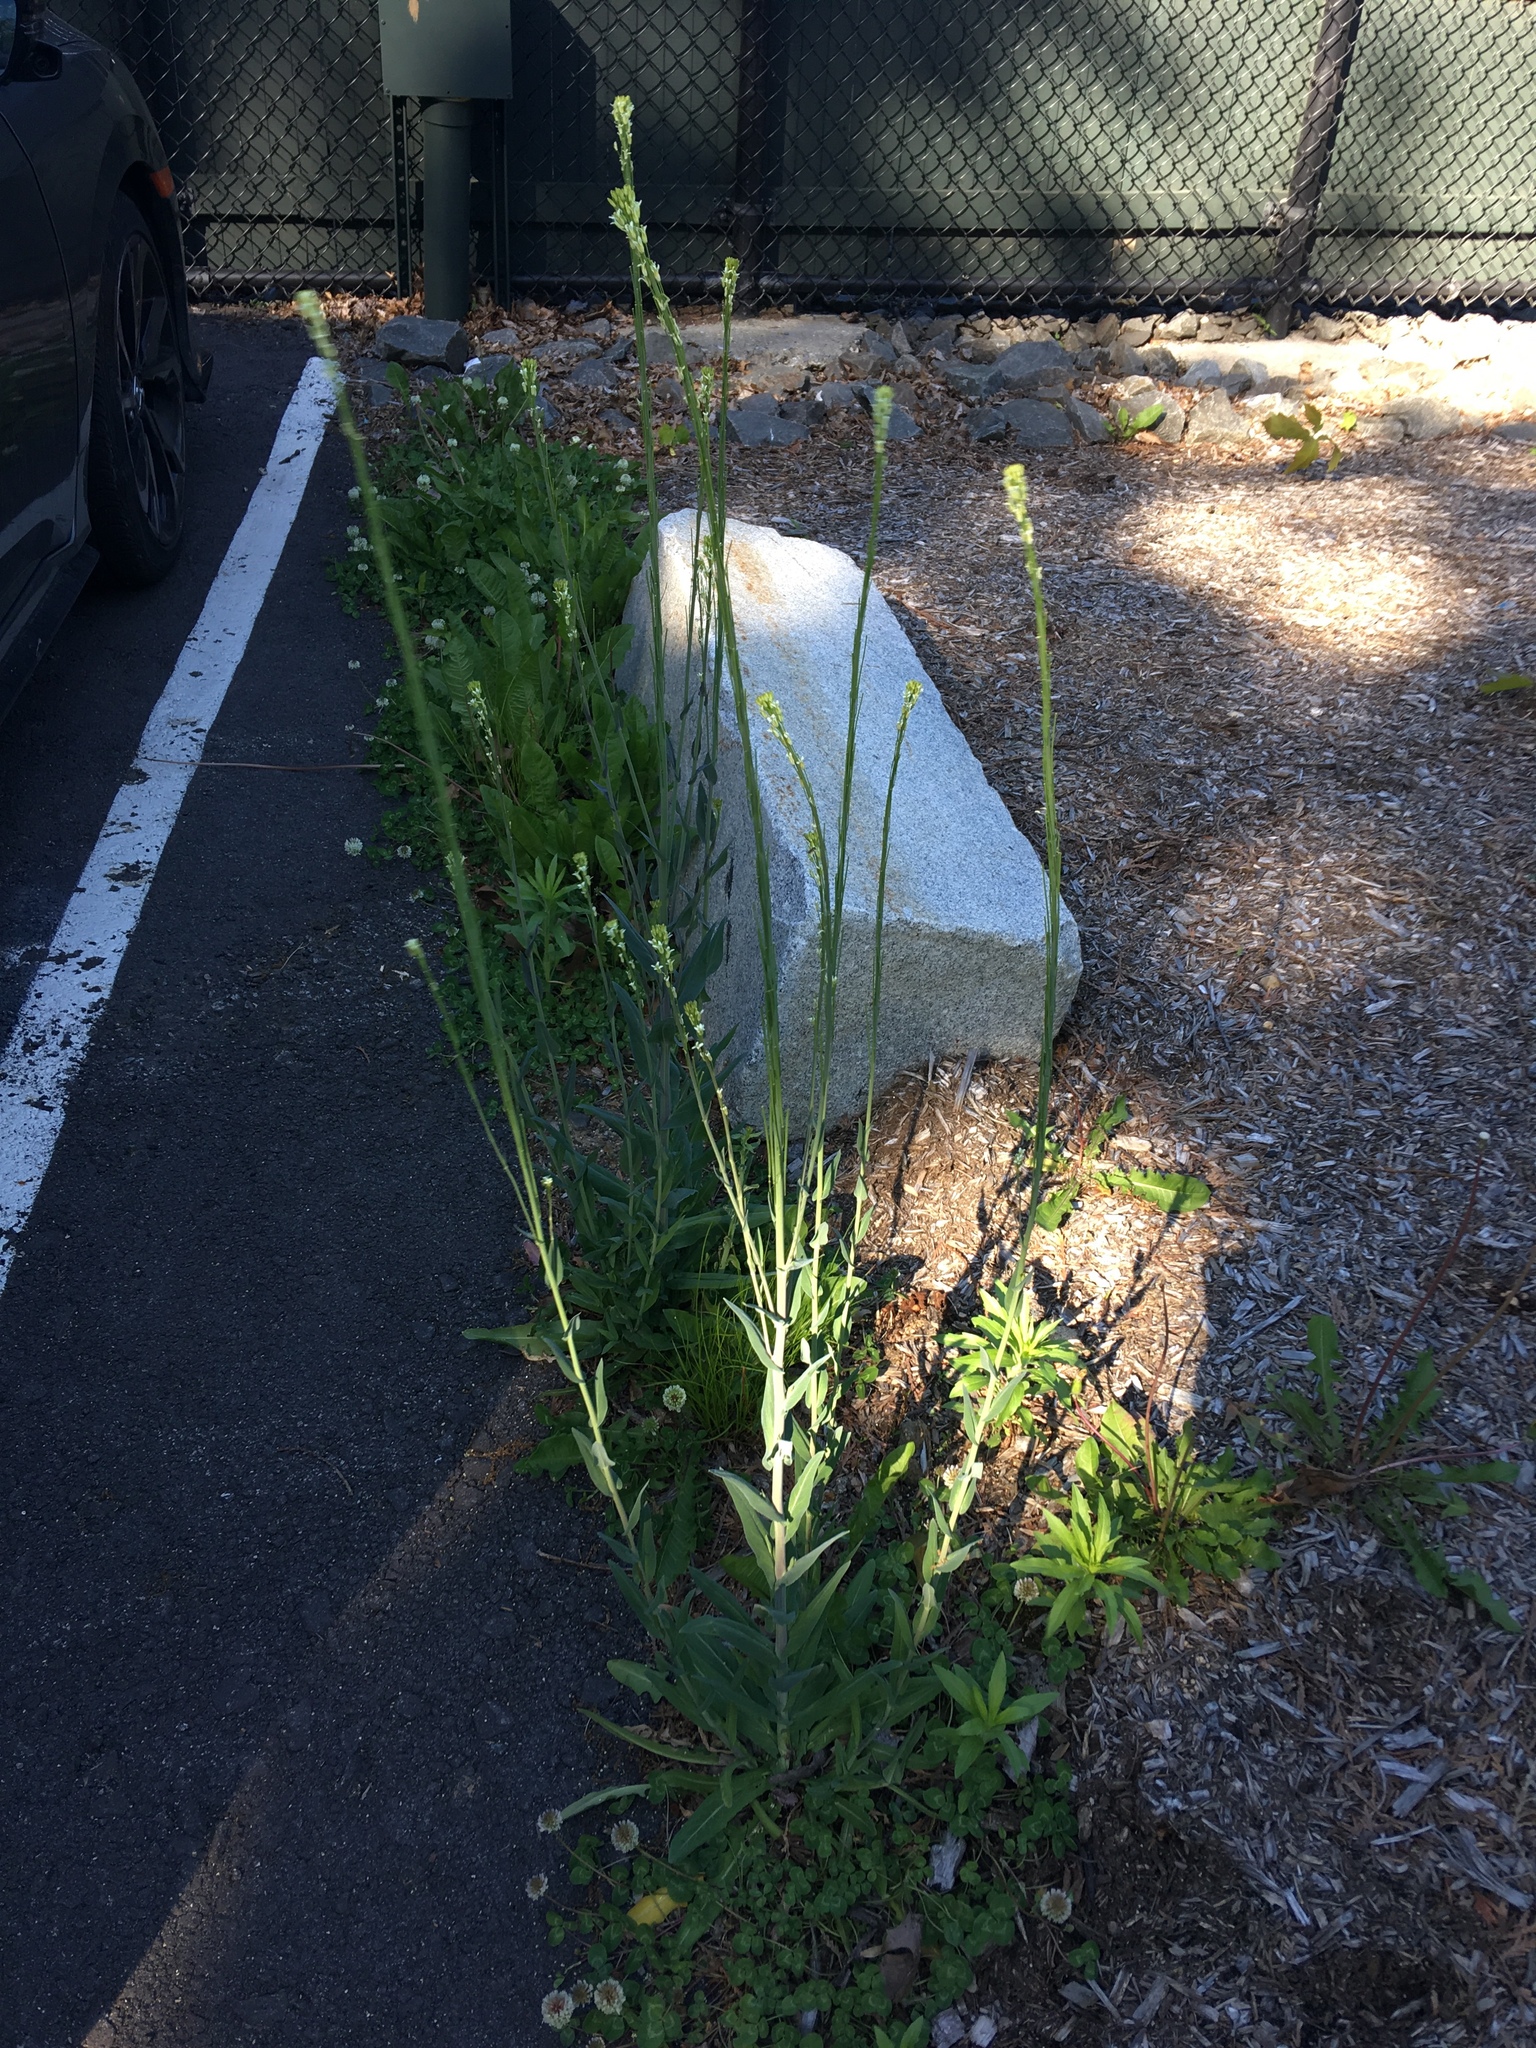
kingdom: Plantae
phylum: Tracheophyta
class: Magnoliopsida
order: Brassicales
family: Brassicaceae
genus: Turritis
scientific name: Turritis glabra
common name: Tower rockcress
